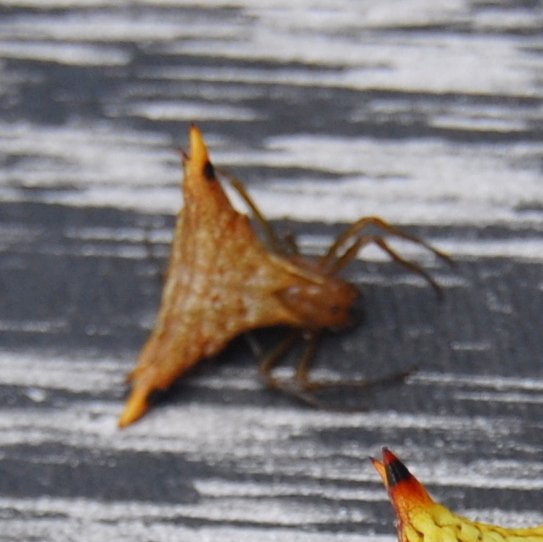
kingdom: Animalia
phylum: Arthropoda
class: Arachnida
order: Araneae
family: Araneidae
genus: Micrathena
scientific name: Micrathena lata
